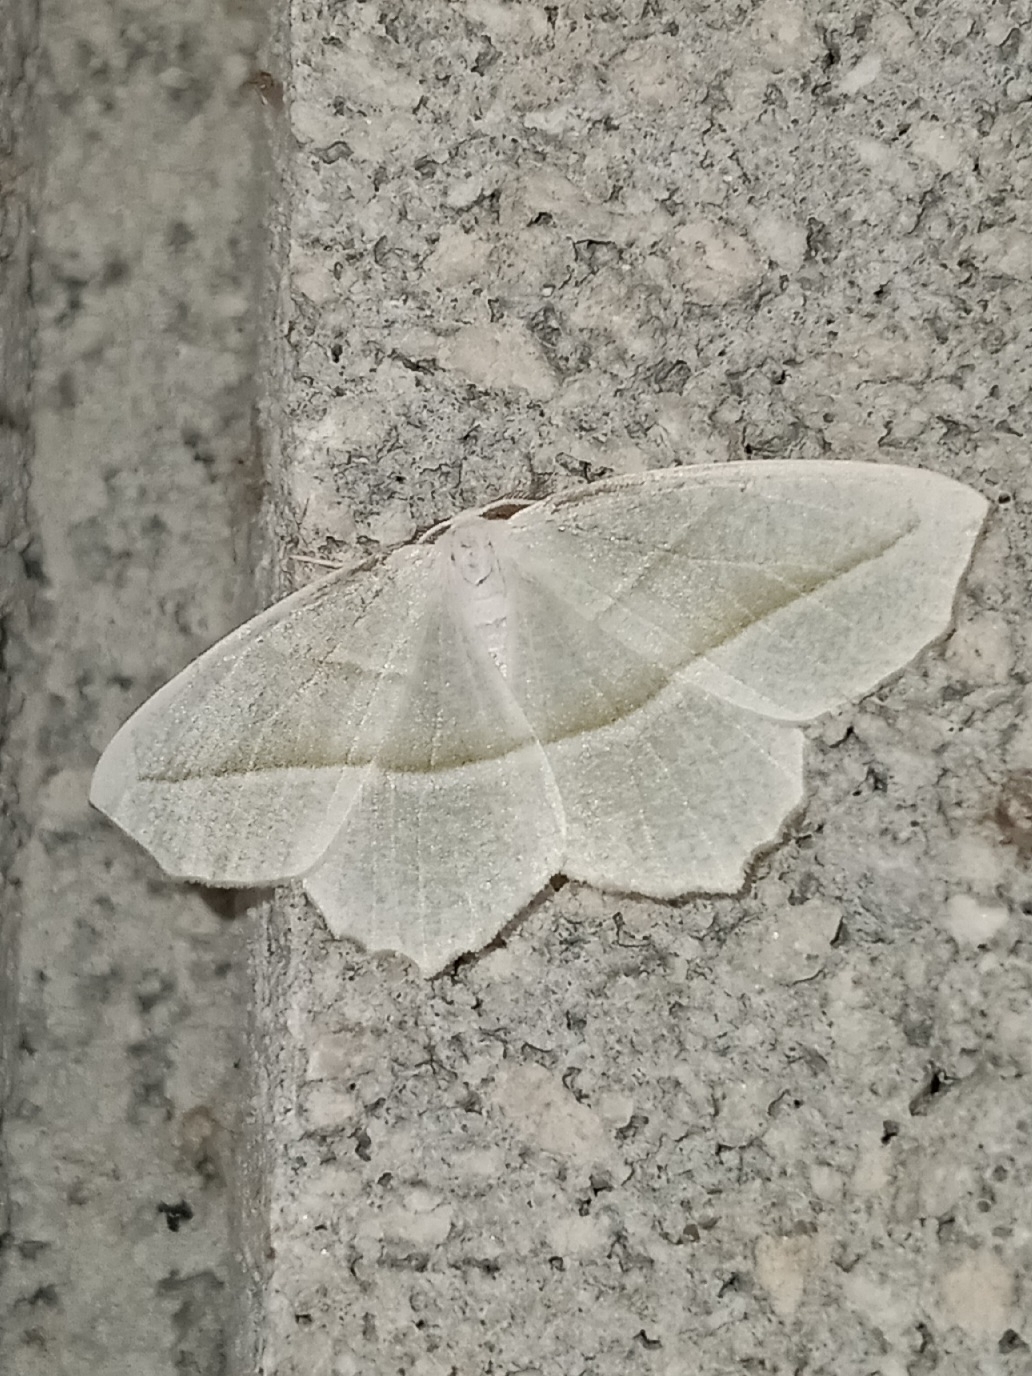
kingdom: Animalia
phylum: Arthropoda
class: Insecta
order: Lepidoptera
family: Geometridae
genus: Campaea
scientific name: Campaea perlata
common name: Fringed looper
